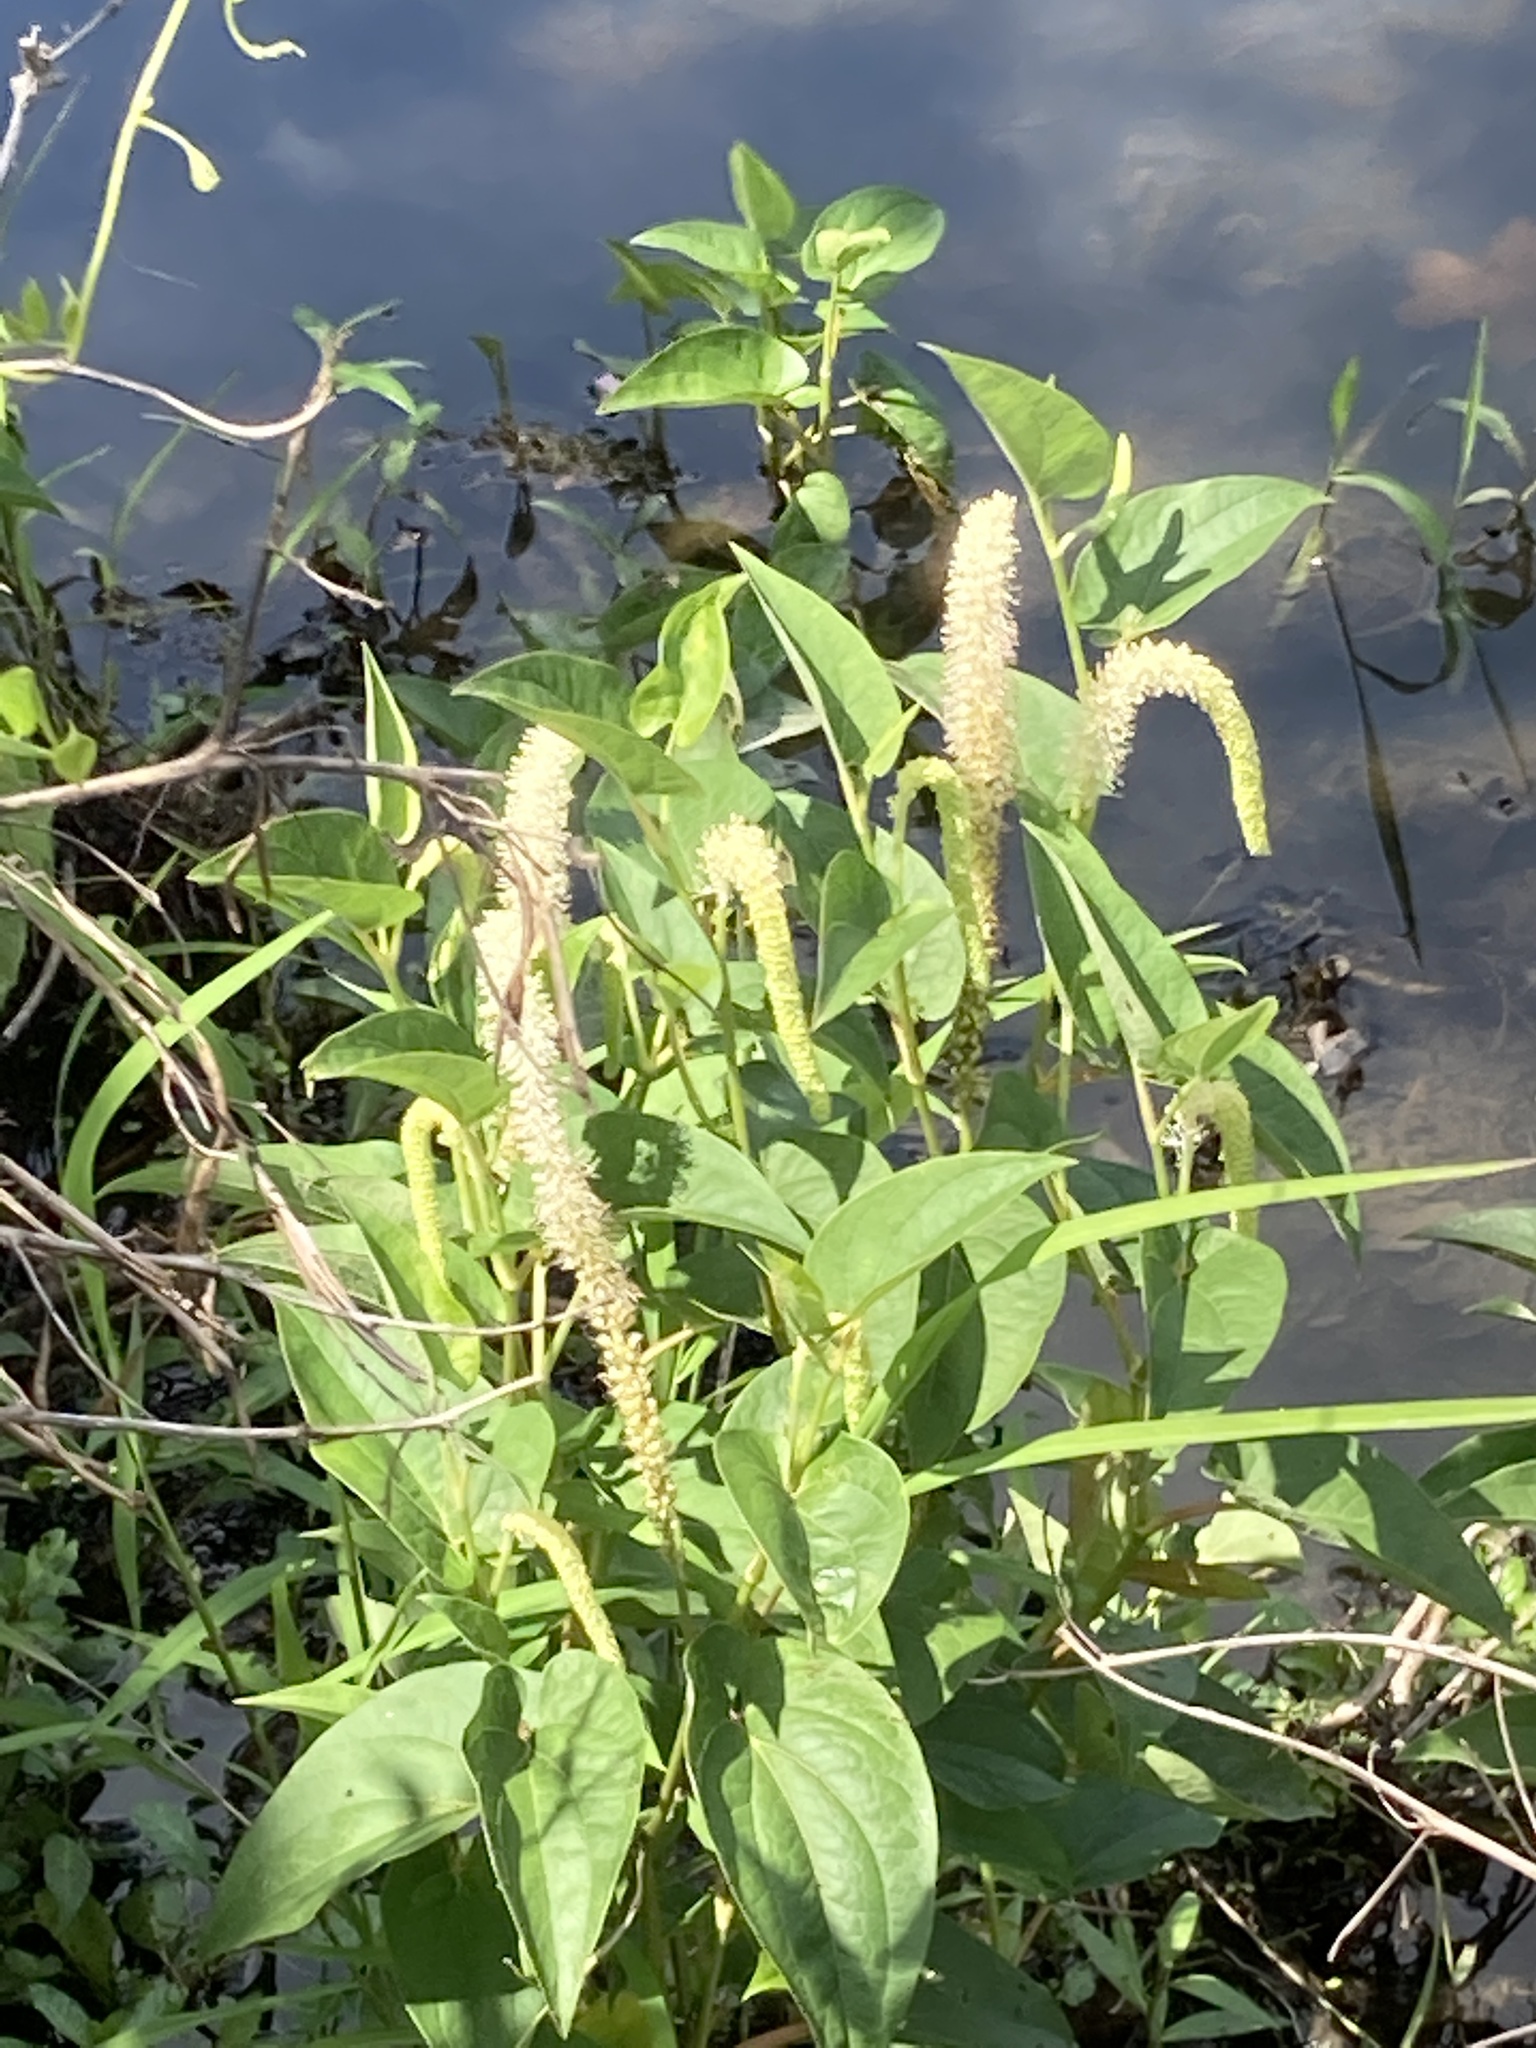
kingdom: Plantae
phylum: Tracheophyta
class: Magnoliopsida
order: Piperales
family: Saururaceae
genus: Saururus
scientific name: Saururus cernuus
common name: Lizard's-tail
